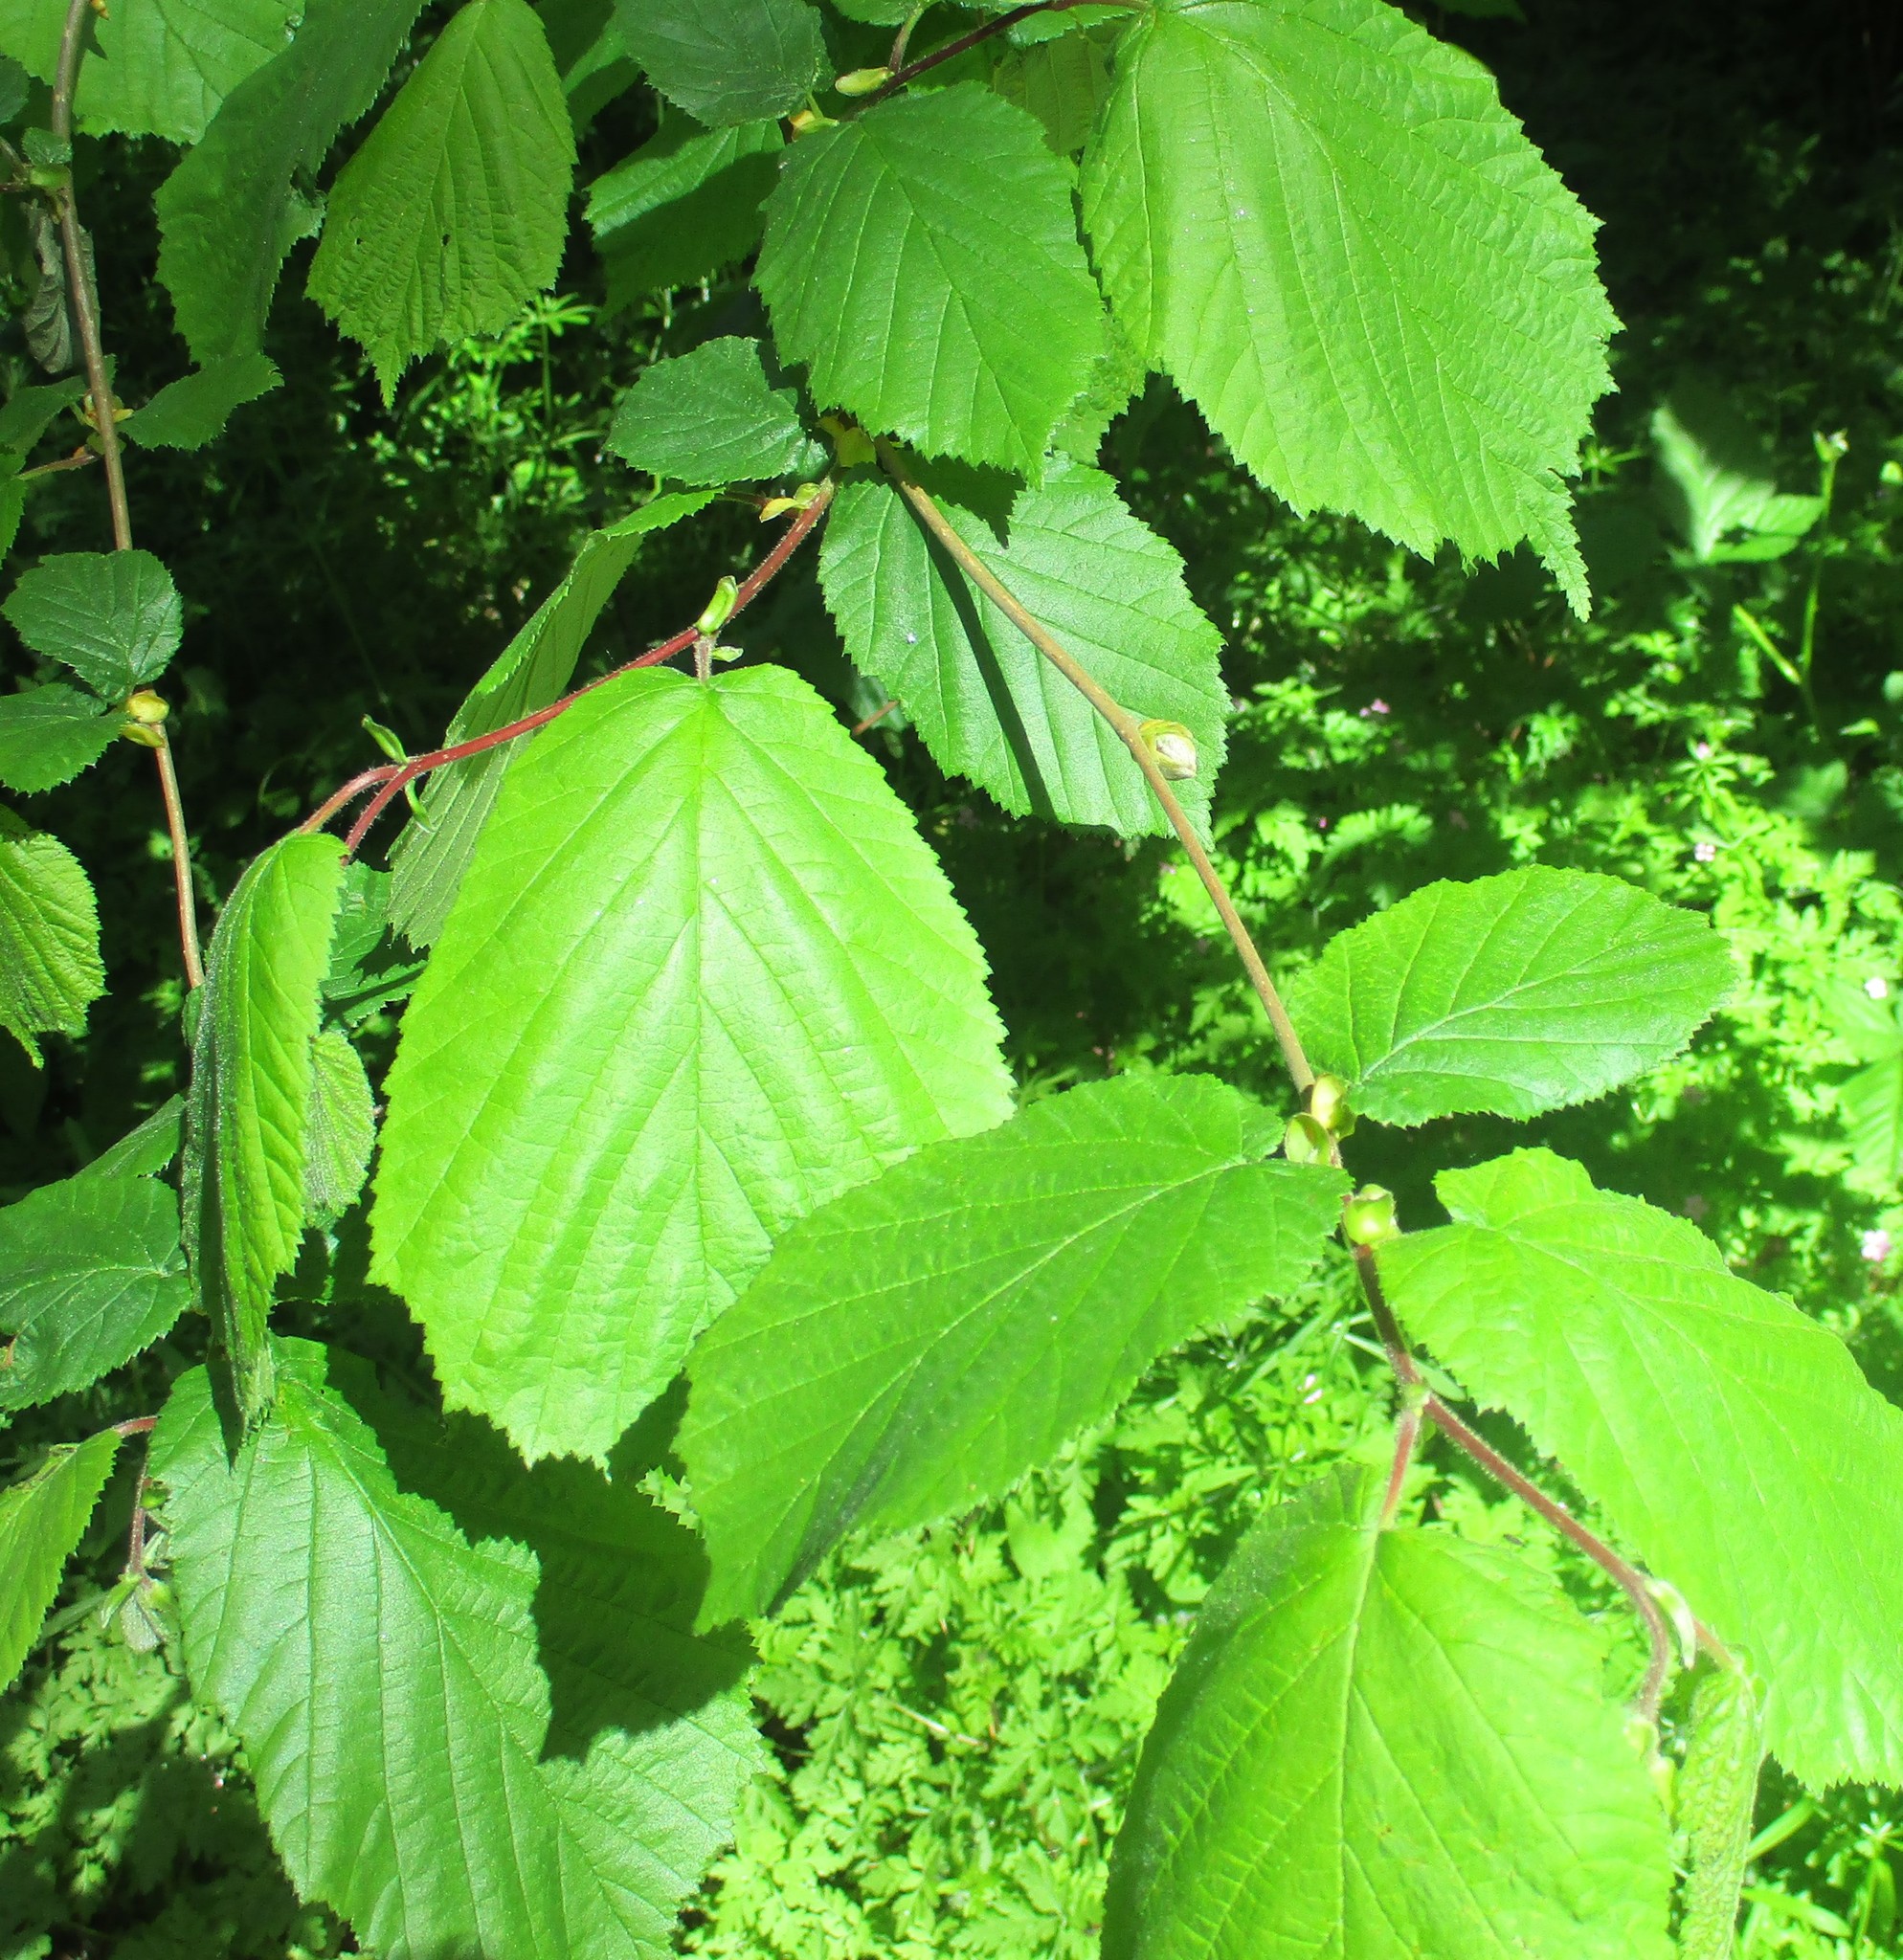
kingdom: Plantae
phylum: Tracheophyta
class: Magnoliopsida
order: Fagales
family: Betulaceae
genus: Corylus
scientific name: Corylus americana
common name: American hazel
